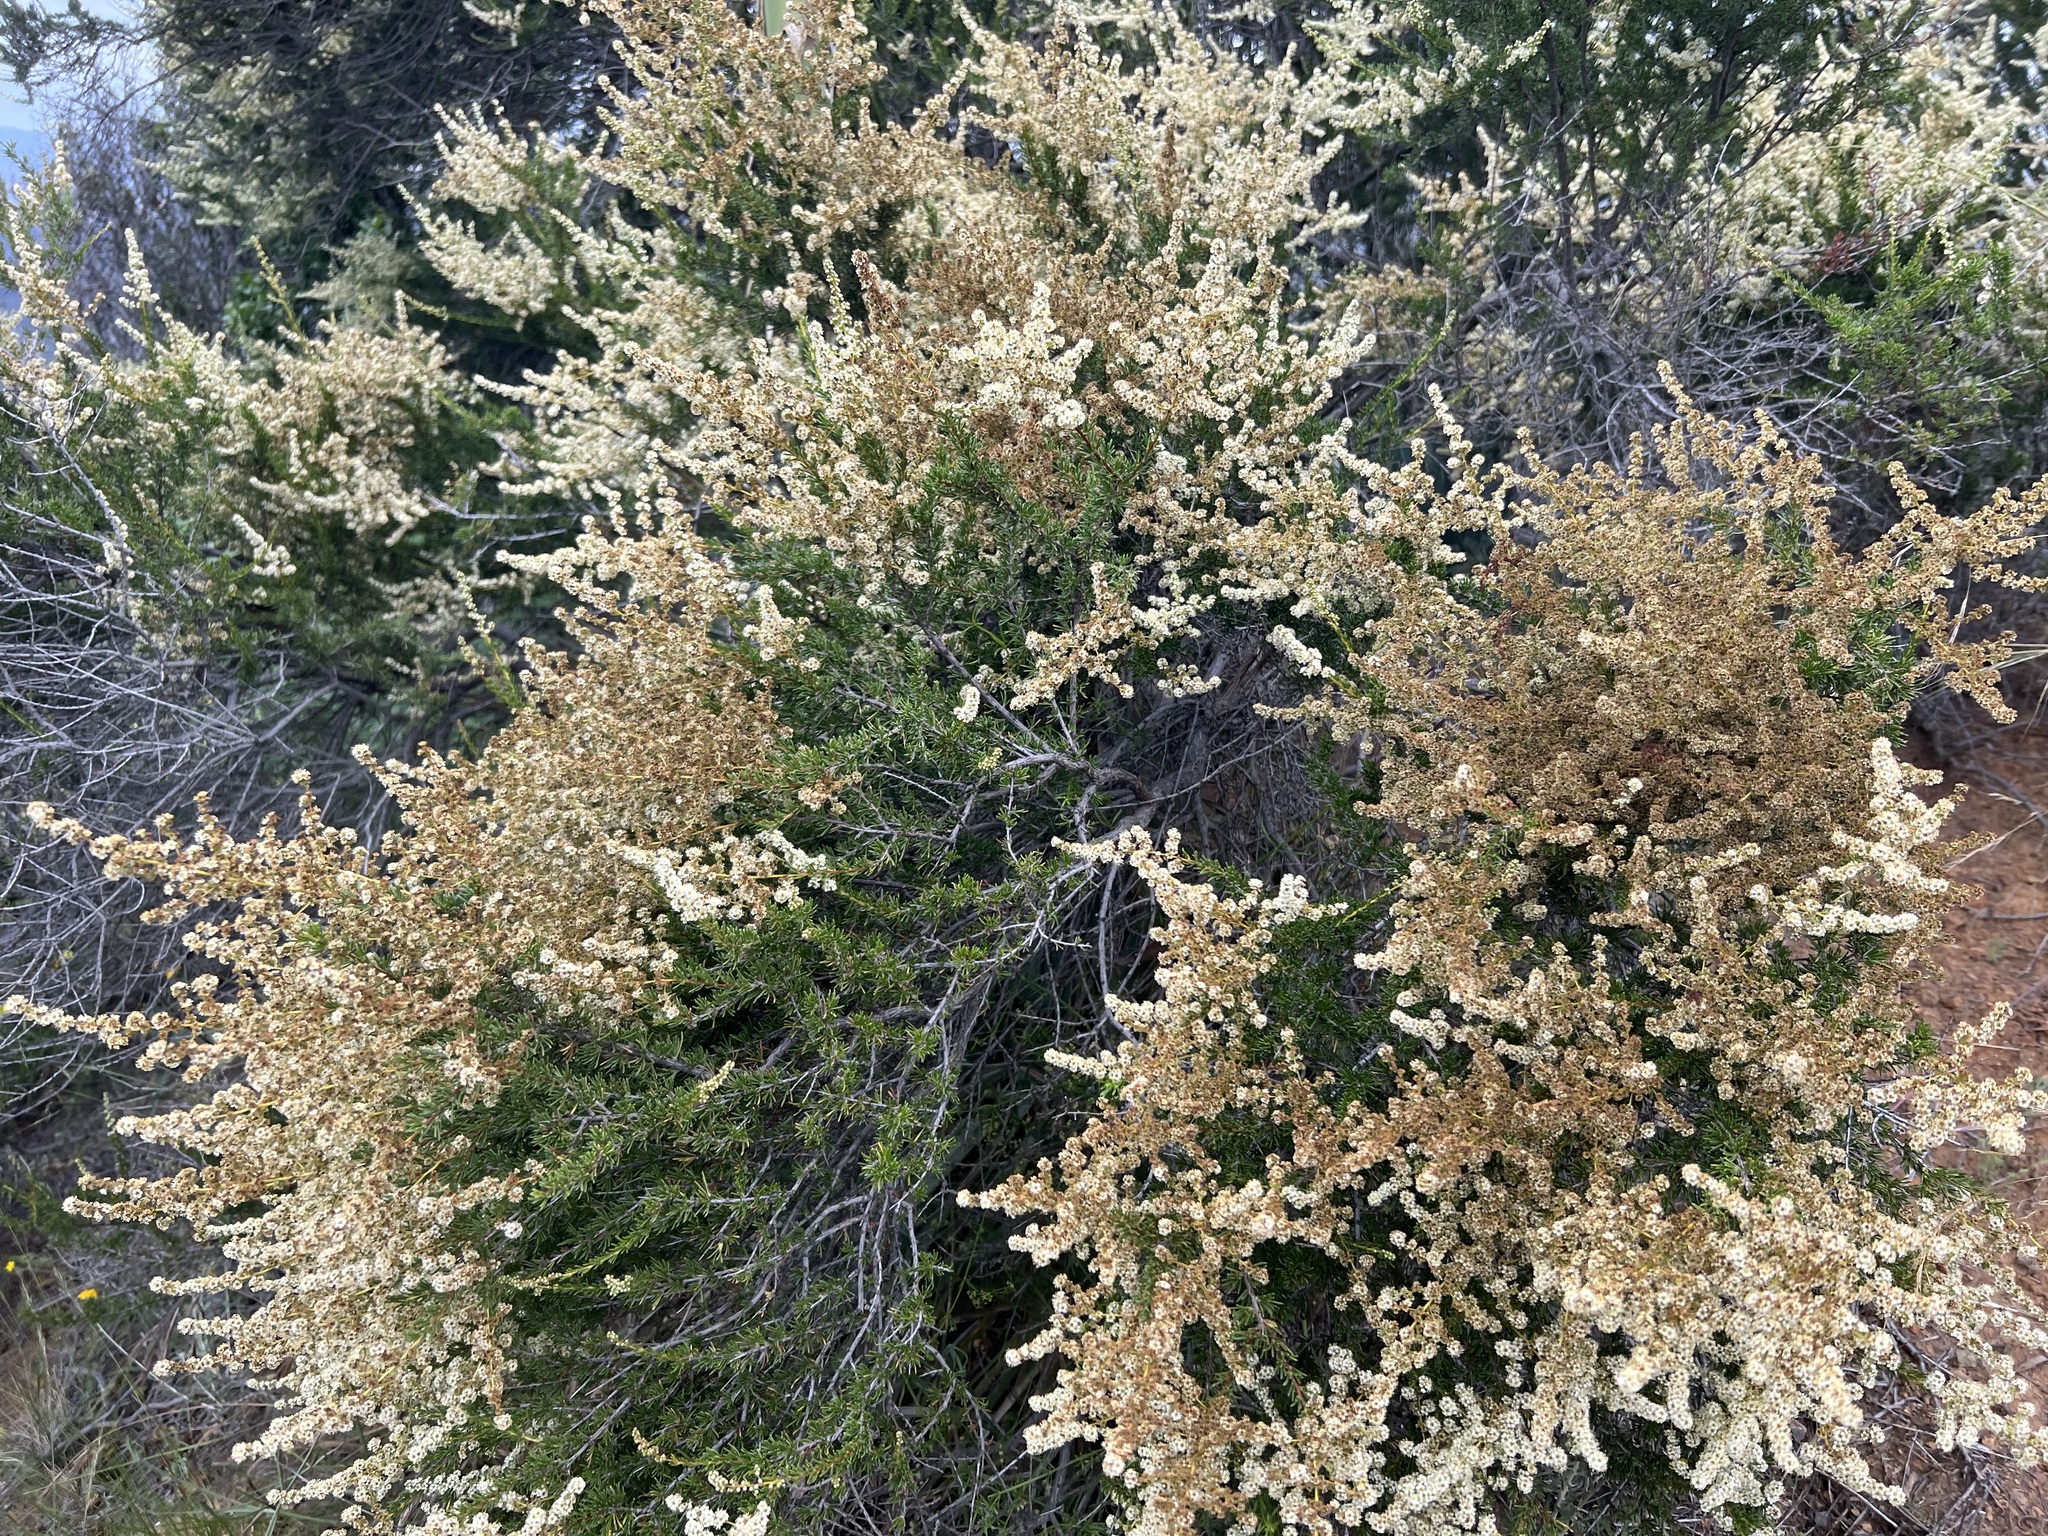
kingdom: Plantae
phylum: Tracheophyta
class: Magnoliopsida
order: Rosales
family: Rosaceae
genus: Adenostoma
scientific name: Adenostoma fasciculatum
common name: Chamise
